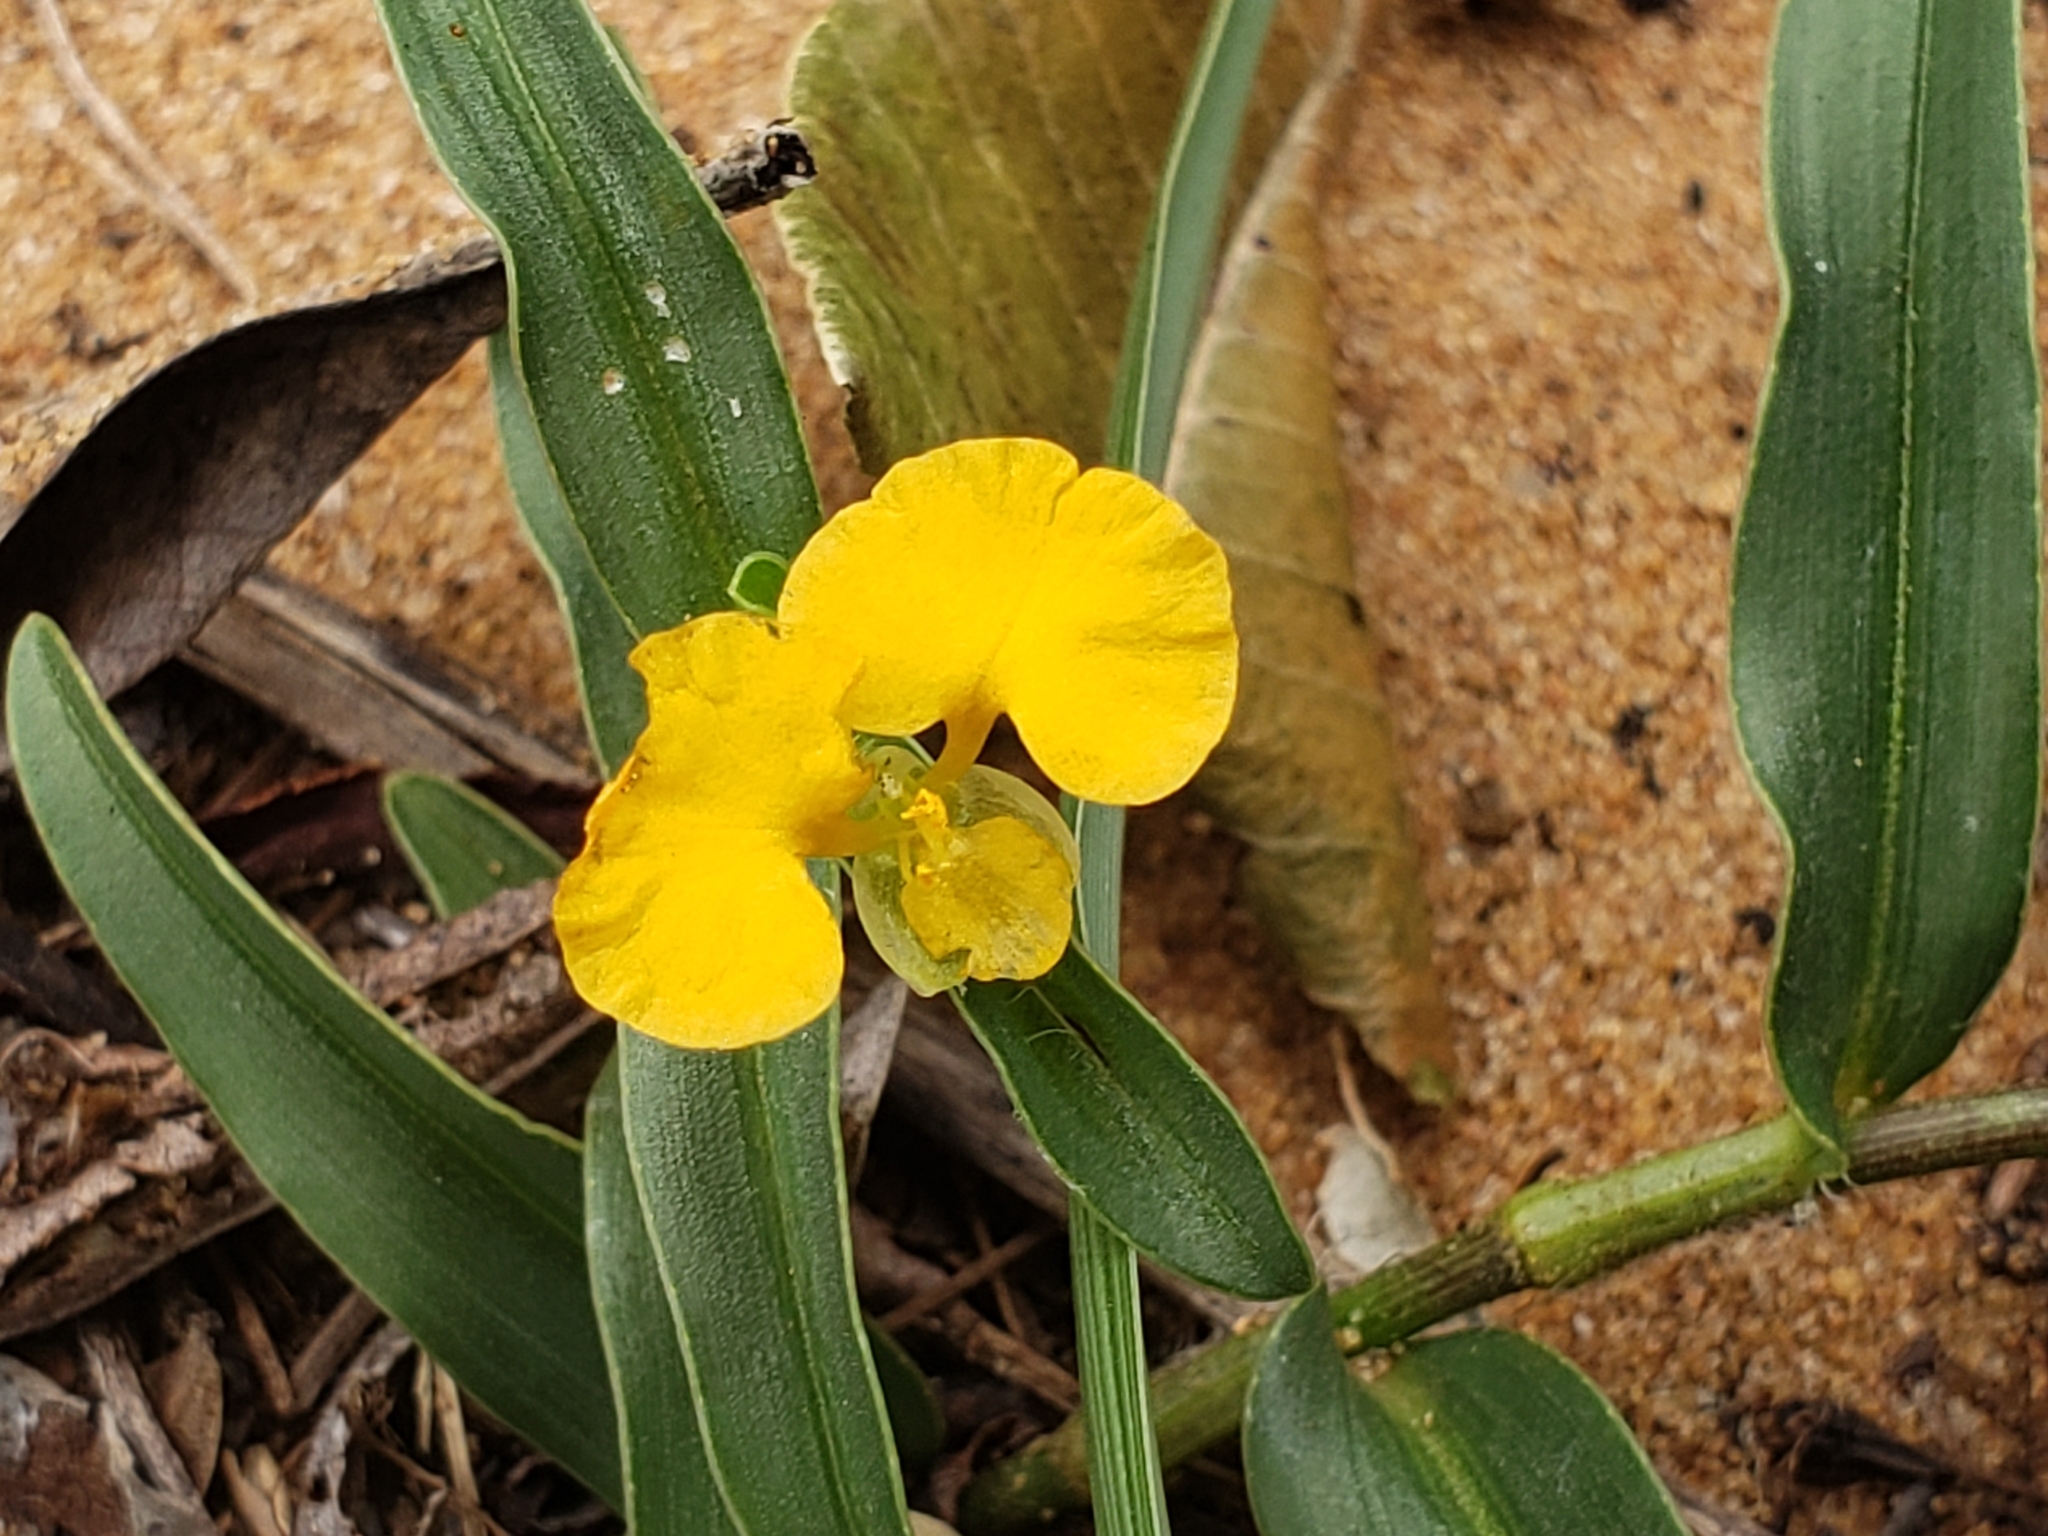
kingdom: Plantae
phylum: Tracheophyta
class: Liliopsida
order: Commelinales
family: Commelinaceae
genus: Commelina
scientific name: Commelina africana
